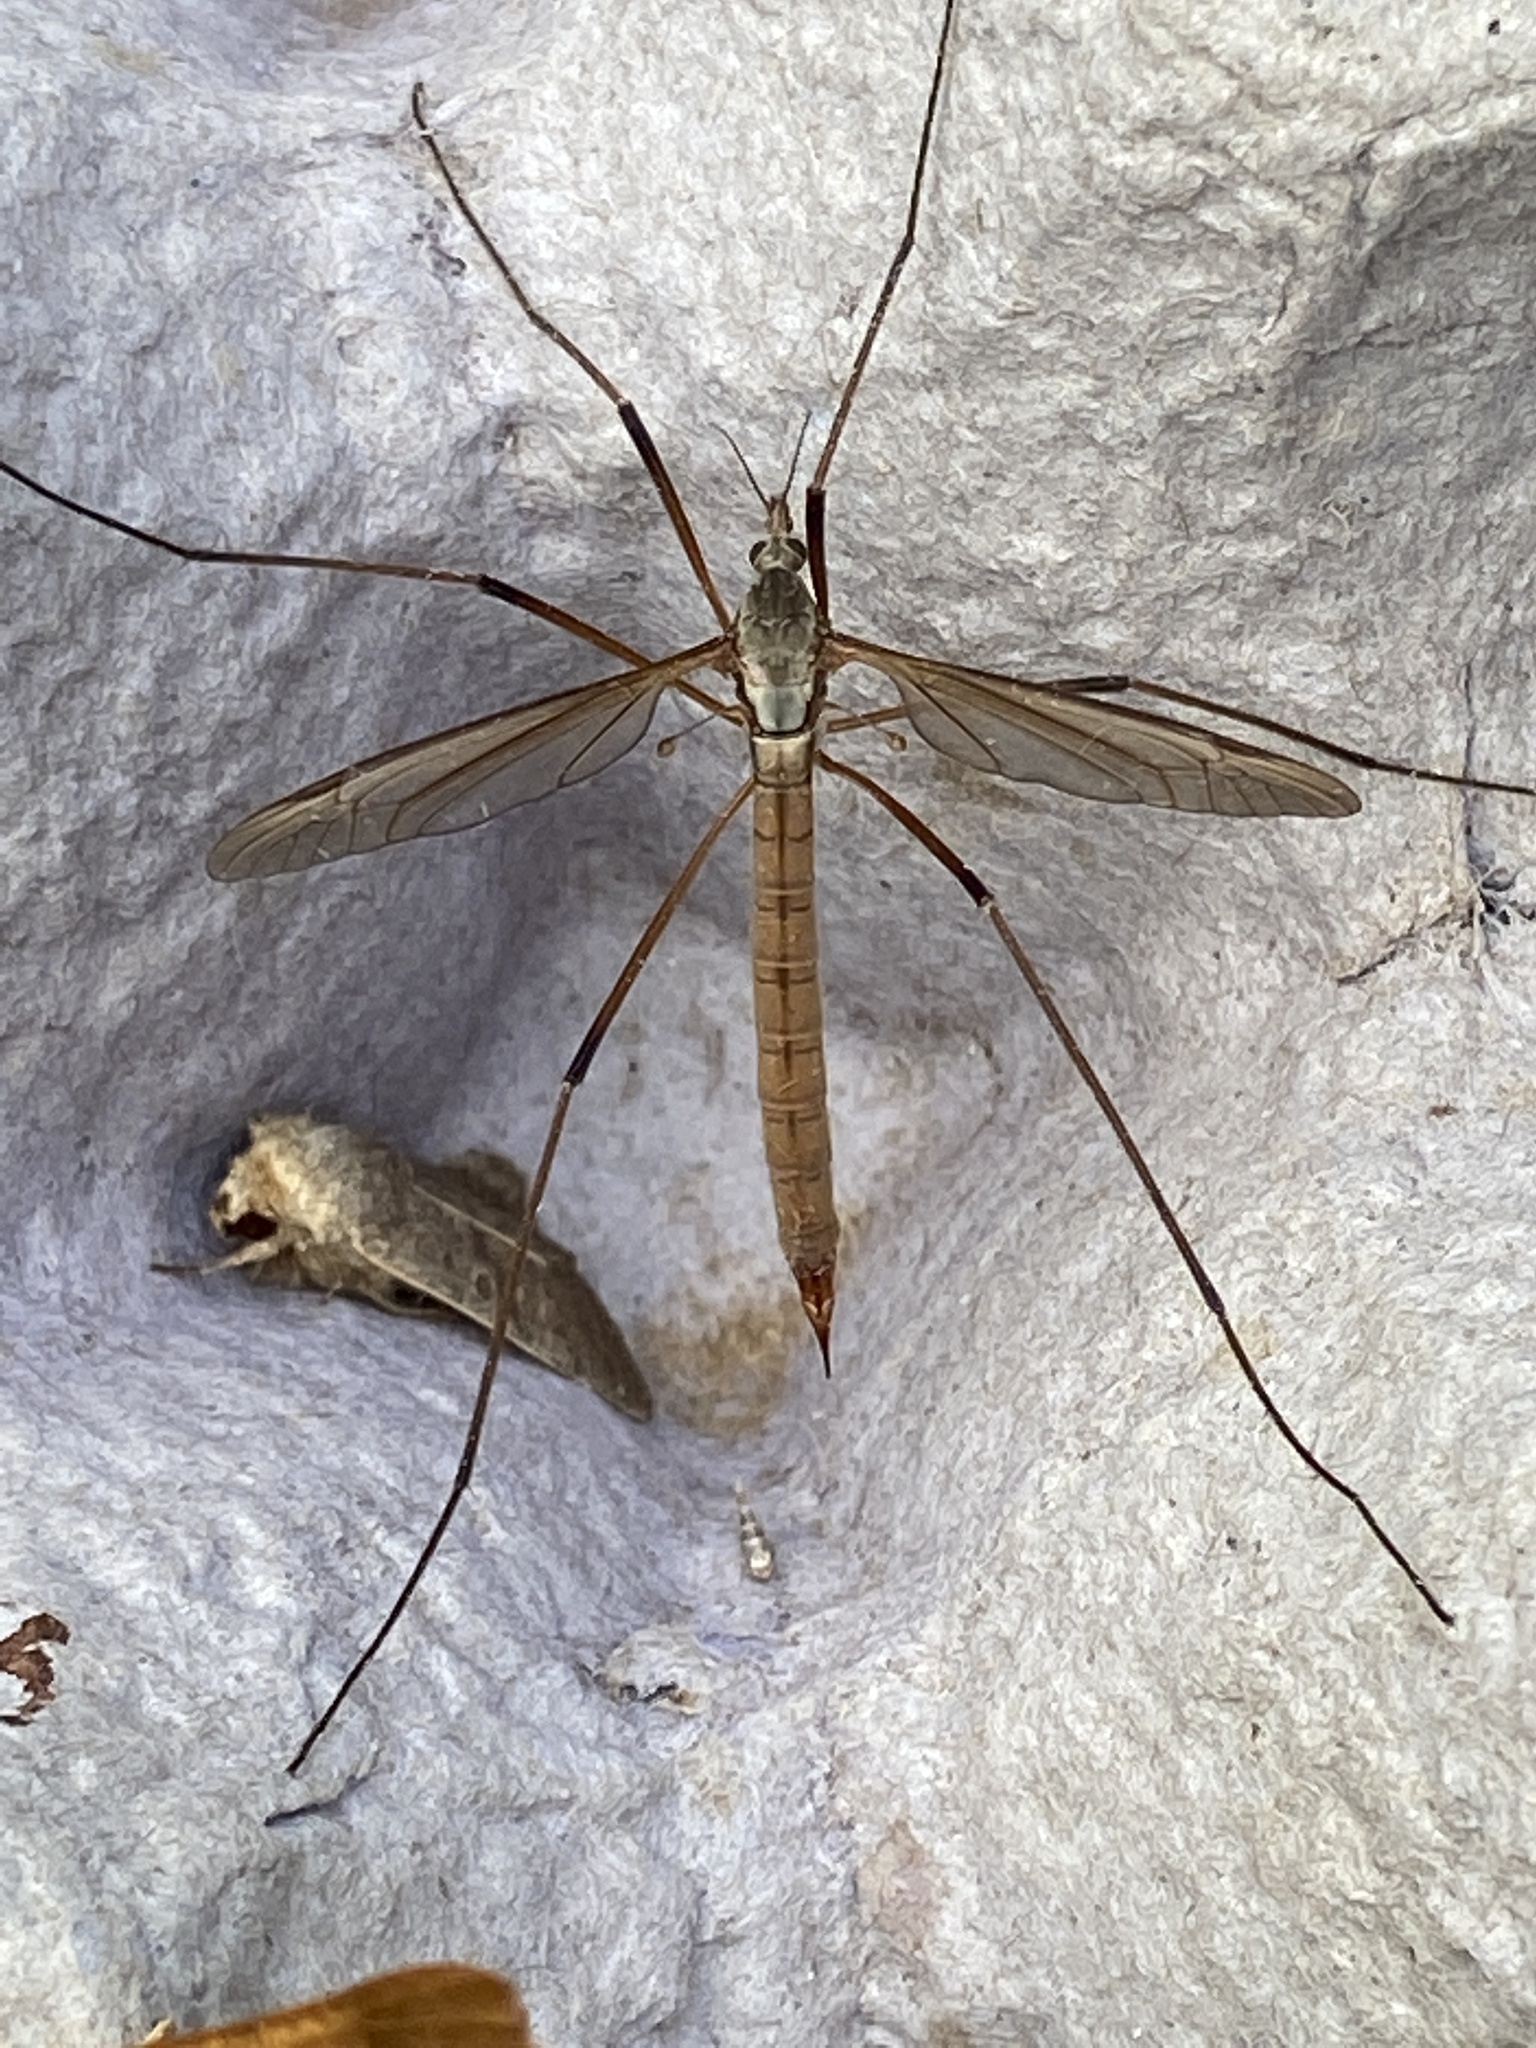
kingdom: Animalia
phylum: Arthropoda
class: Insecta
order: Diptera
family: Tipulidae
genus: Tipula
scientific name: Tipula paludosa
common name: European cranefly
